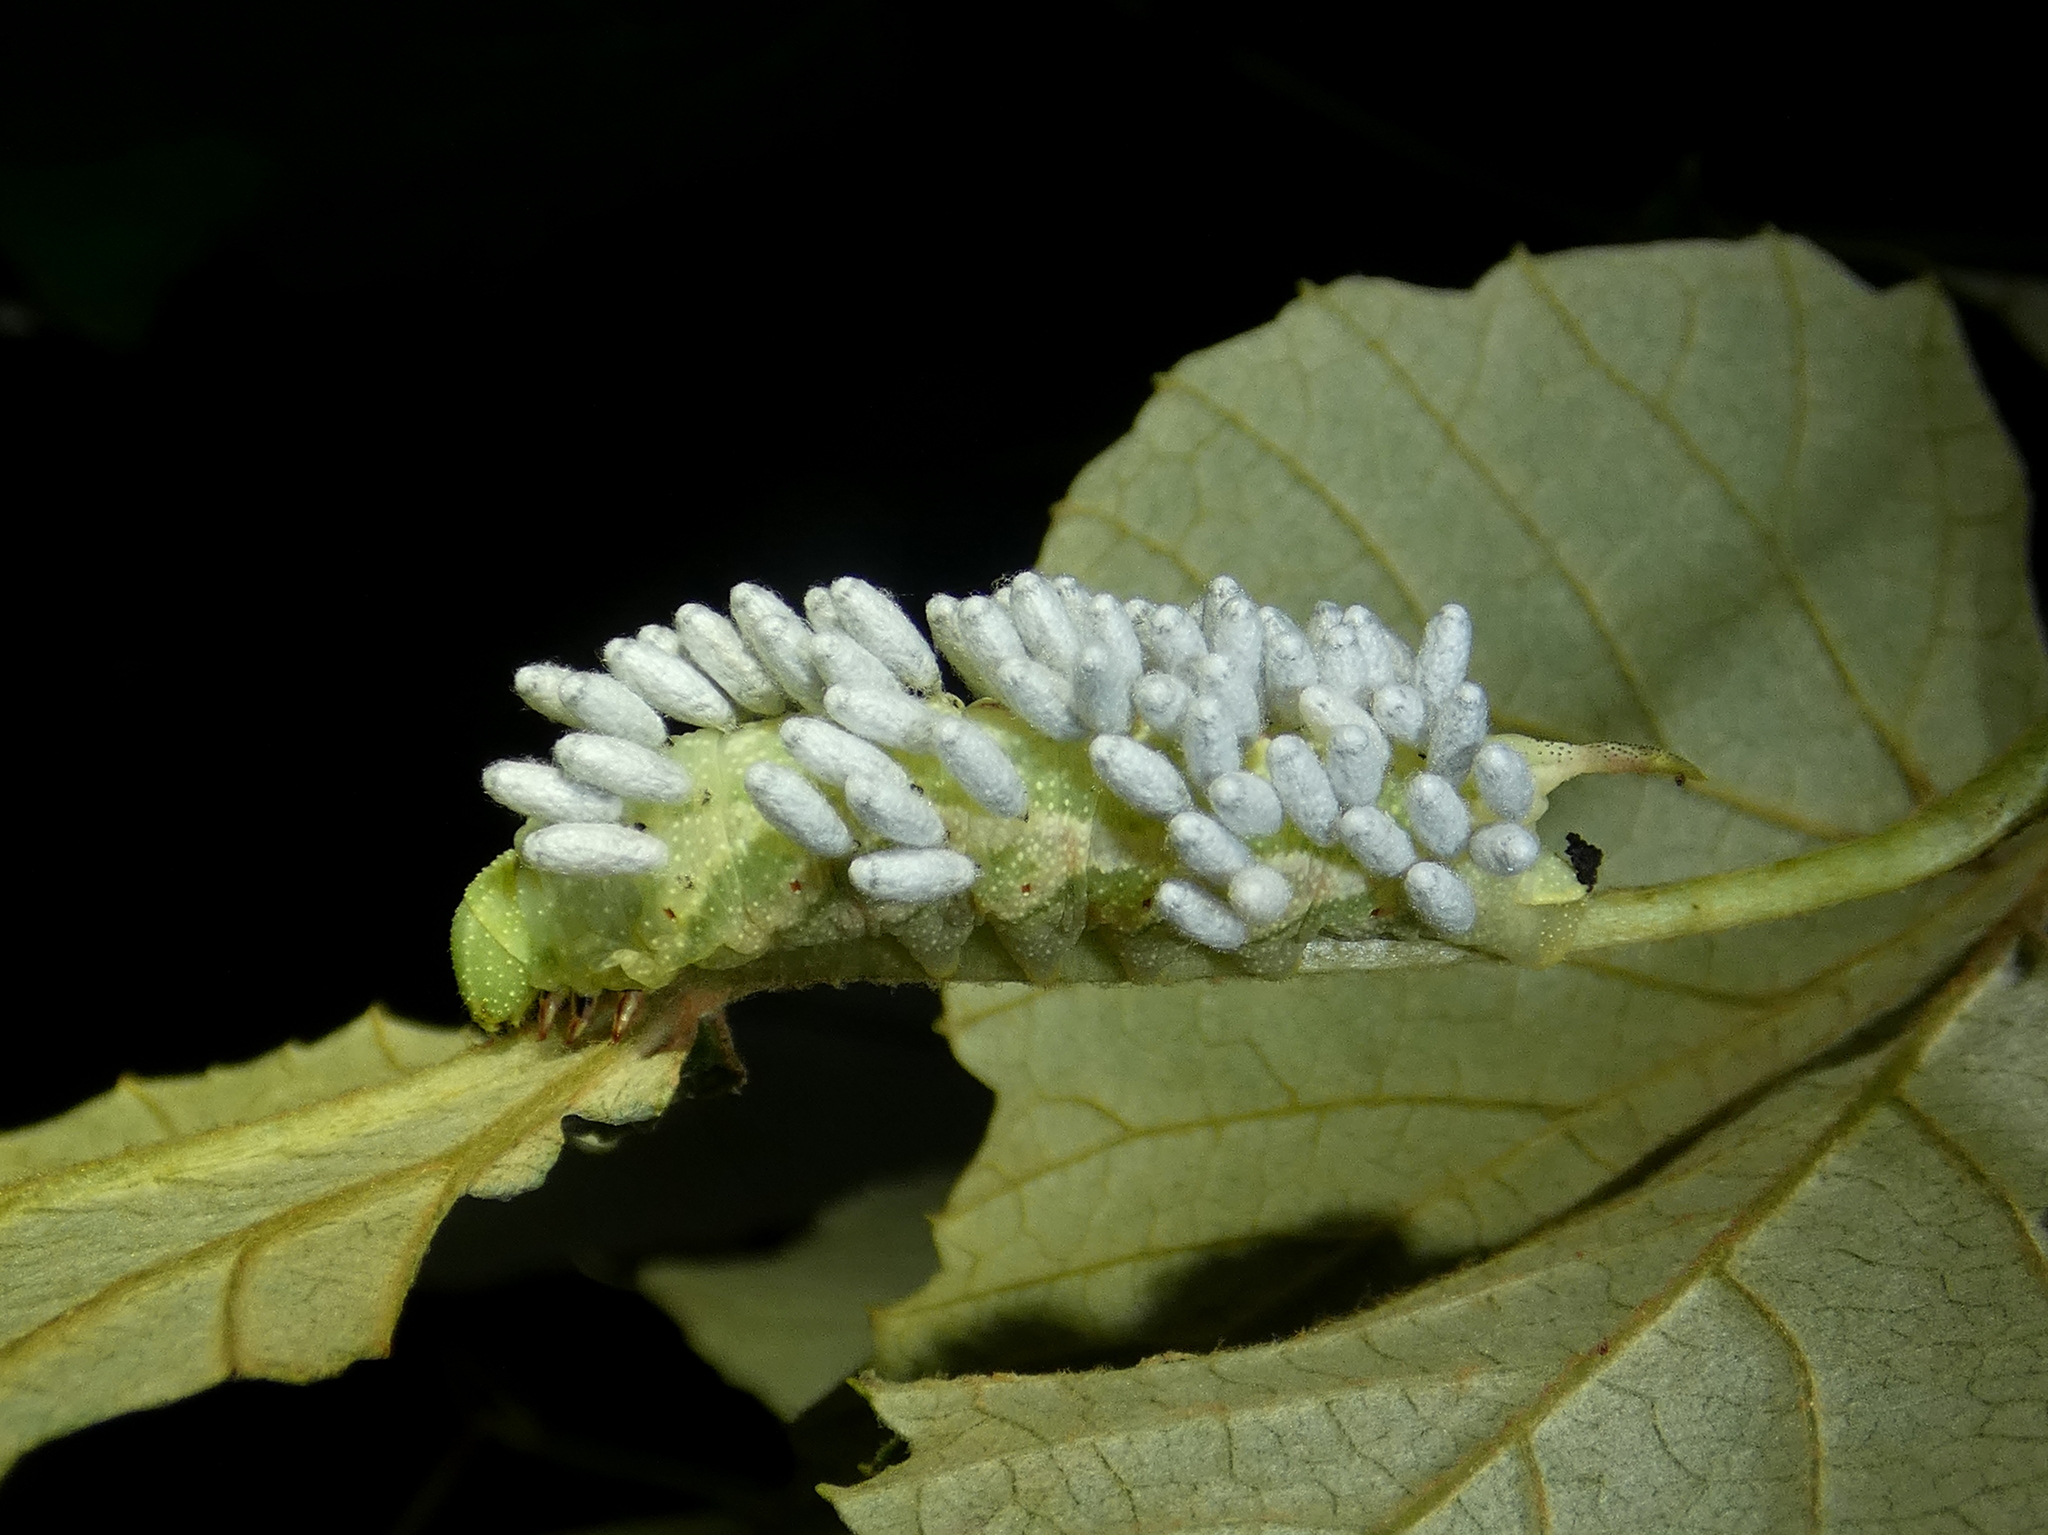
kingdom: Animalia
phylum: Arthropoda
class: Insecta
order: Hymenoptera
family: Braconidae
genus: Cotesia
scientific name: Cotesia congregata
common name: Hornworm parasitoid wasp
